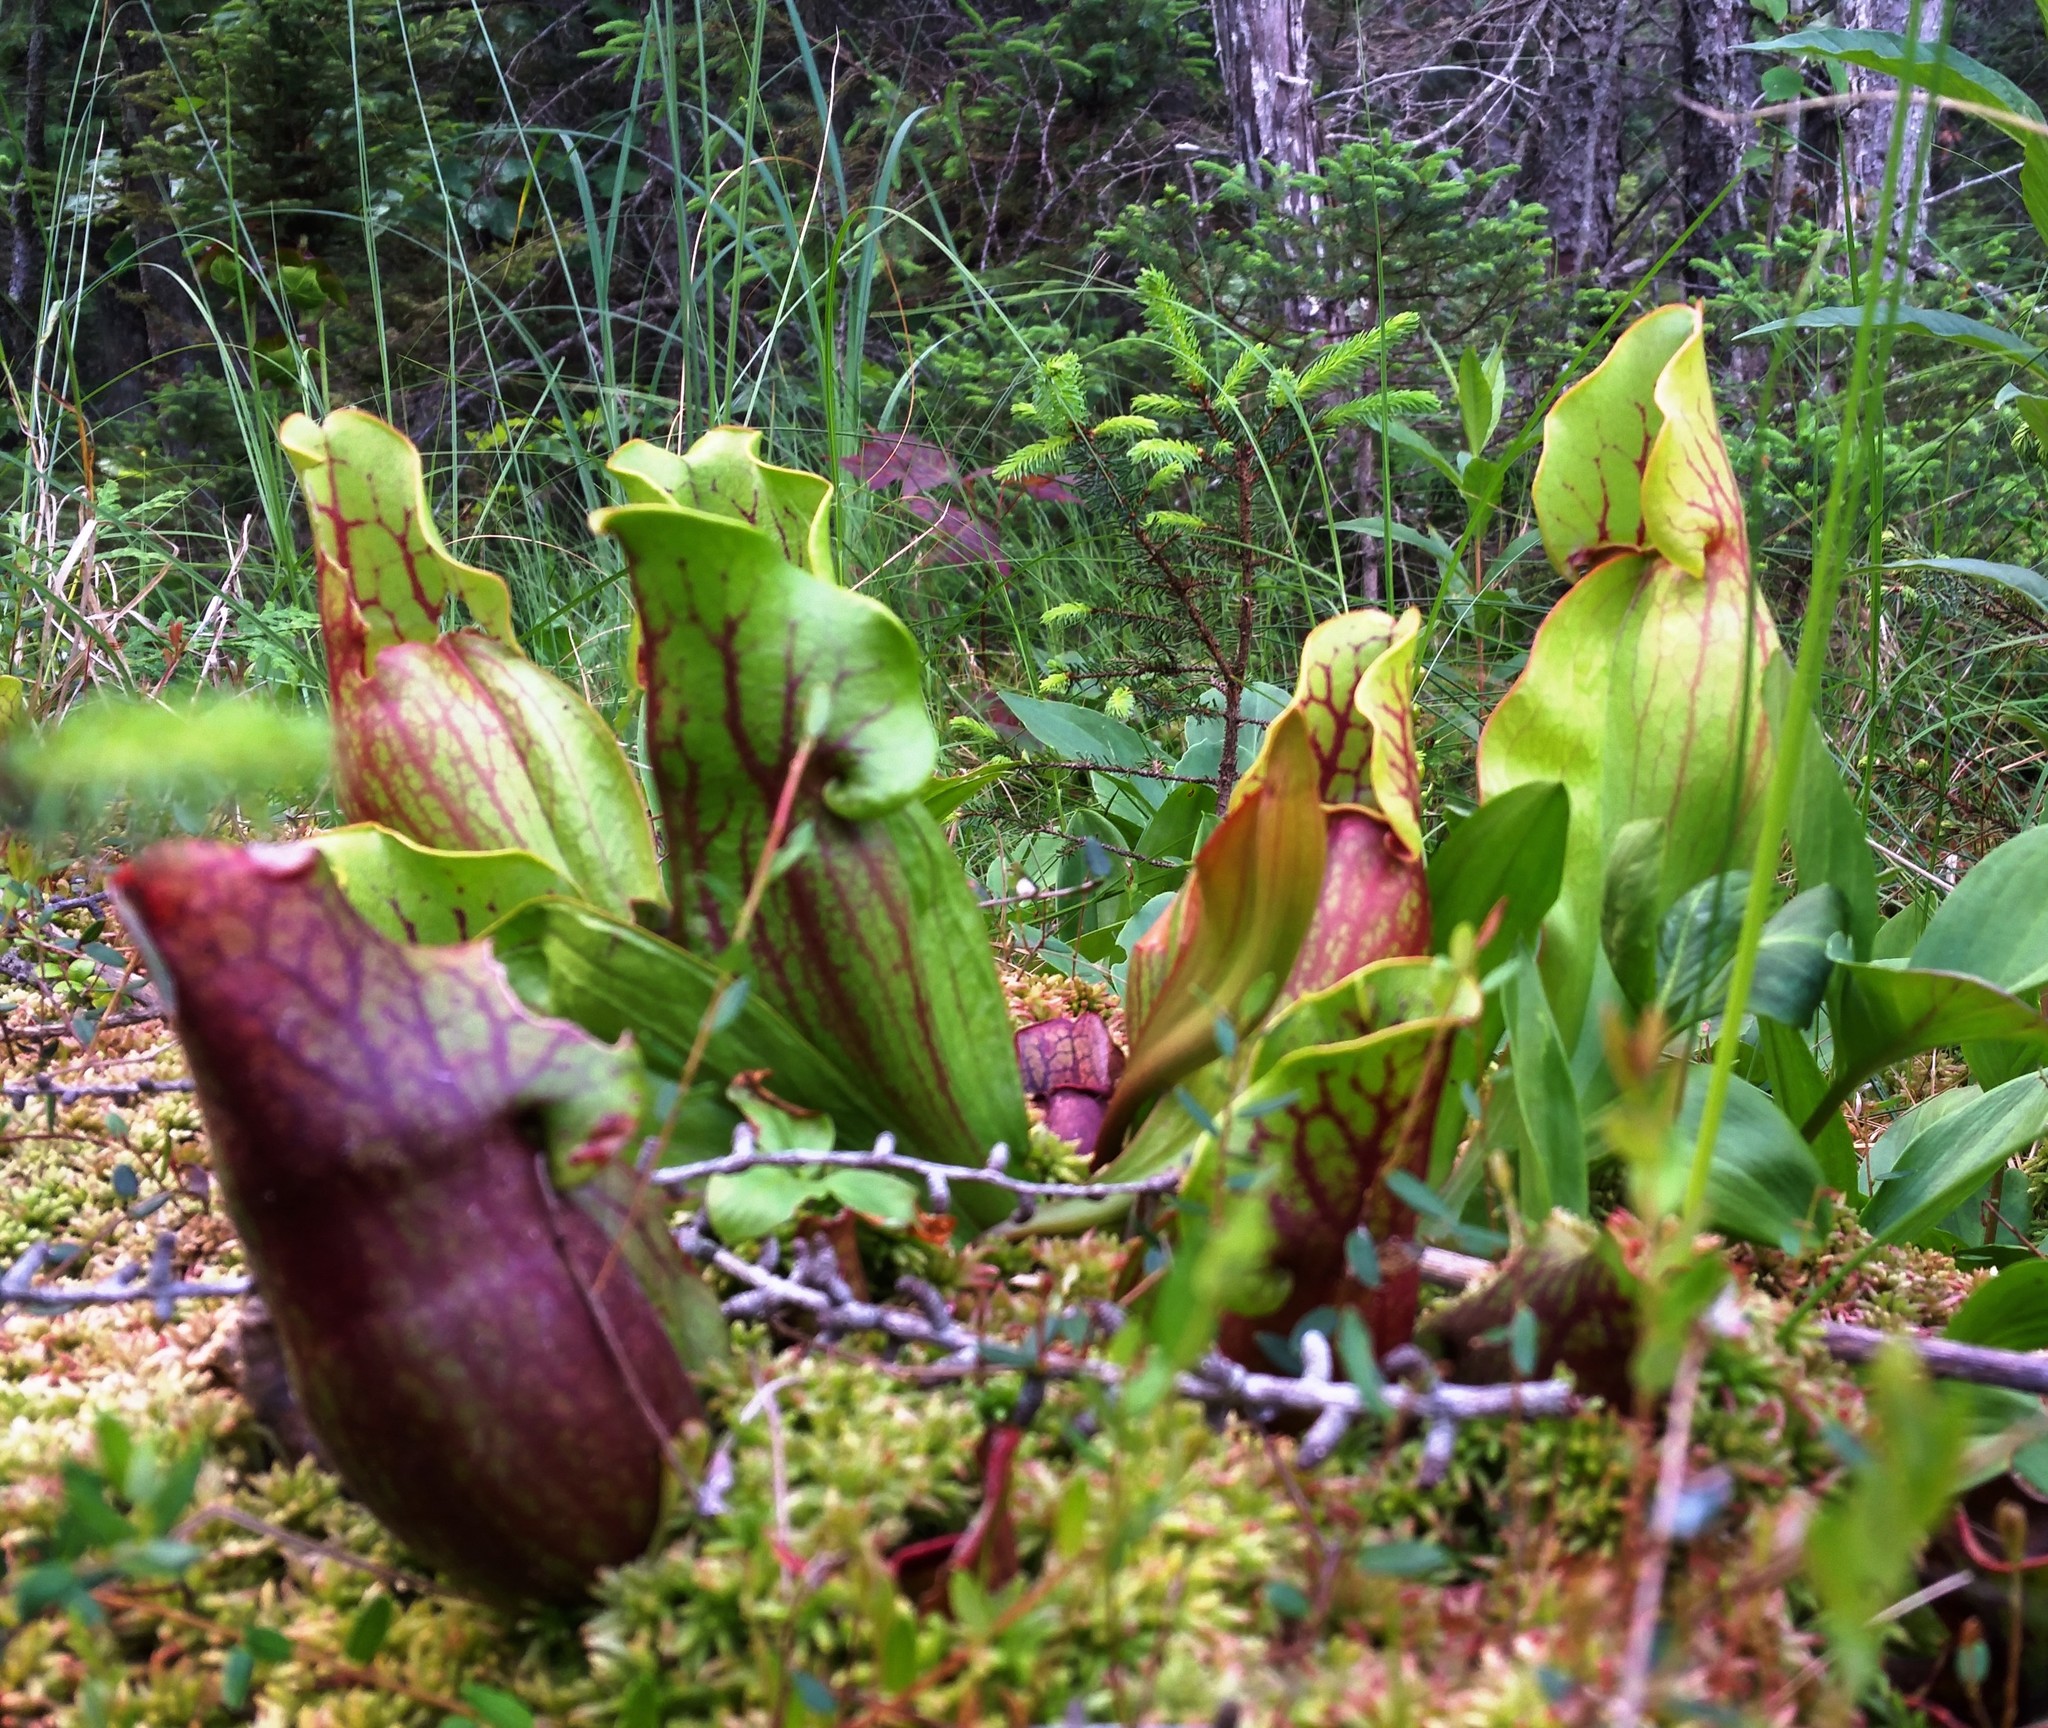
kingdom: Plantae
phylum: Tracheophyta
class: Magnoliopsida
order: Ericales
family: Sarraceniaceae
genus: Sarracenia
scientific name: Sarracenia purpurea
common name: Pitcherplant
